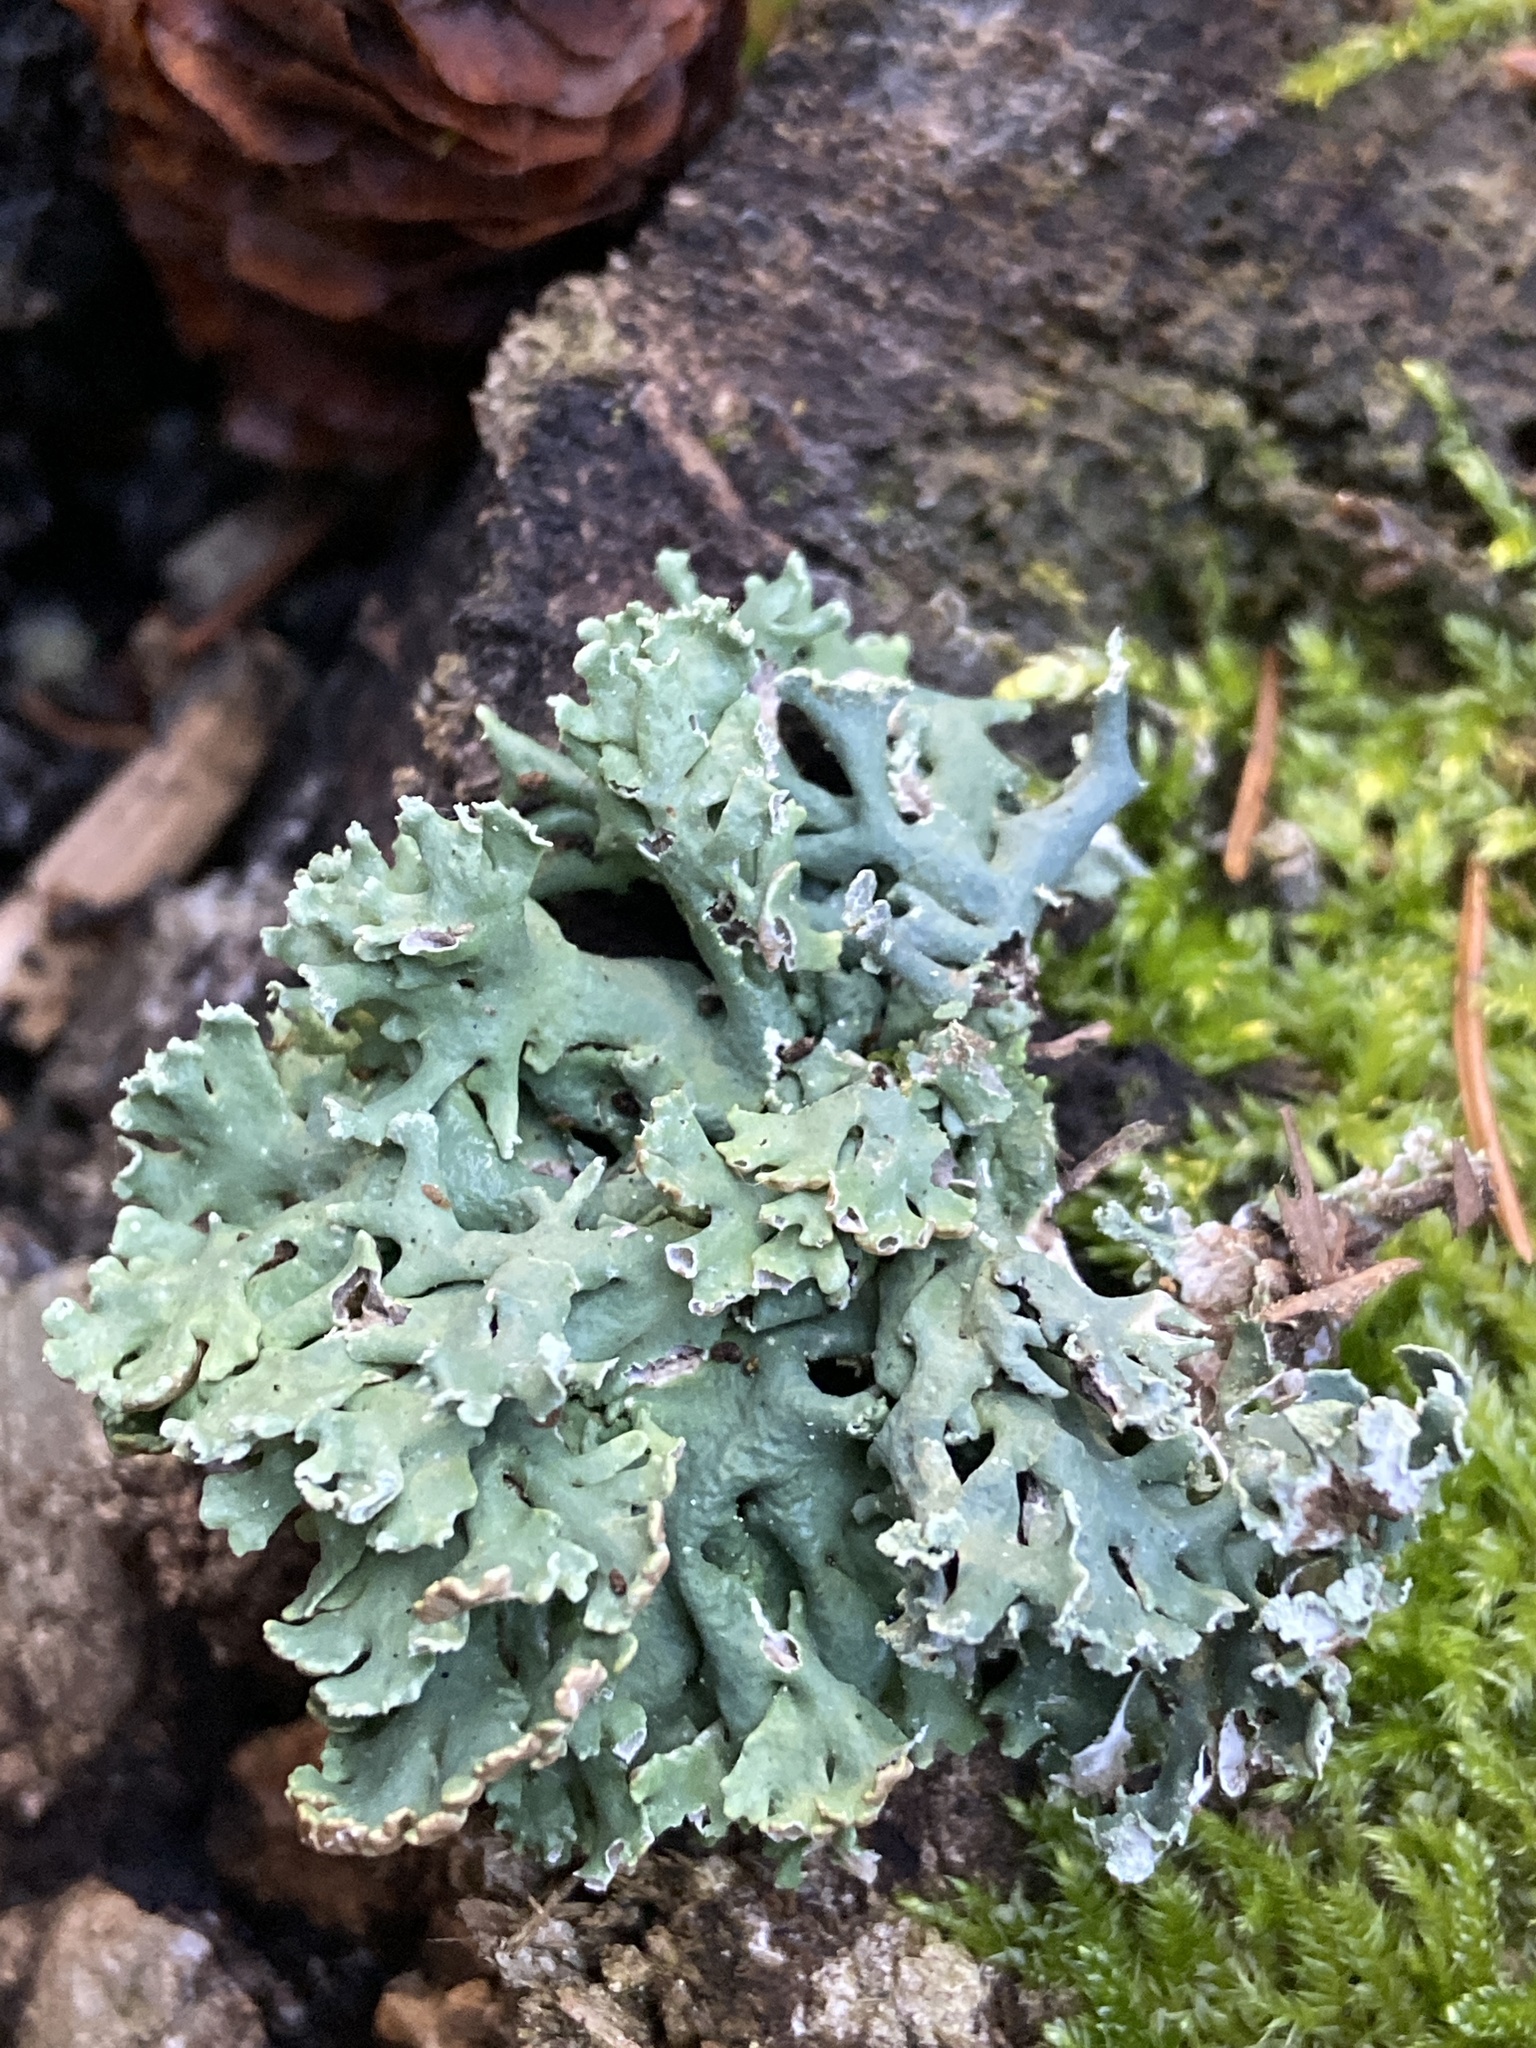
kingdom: Fungi
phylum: Ascomycota
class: Lecanoromycetes
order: Lecanorales
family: Parmeliaceae
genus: Hypogymnia
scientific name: Hypogymnia physodes
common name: Dark crottle
